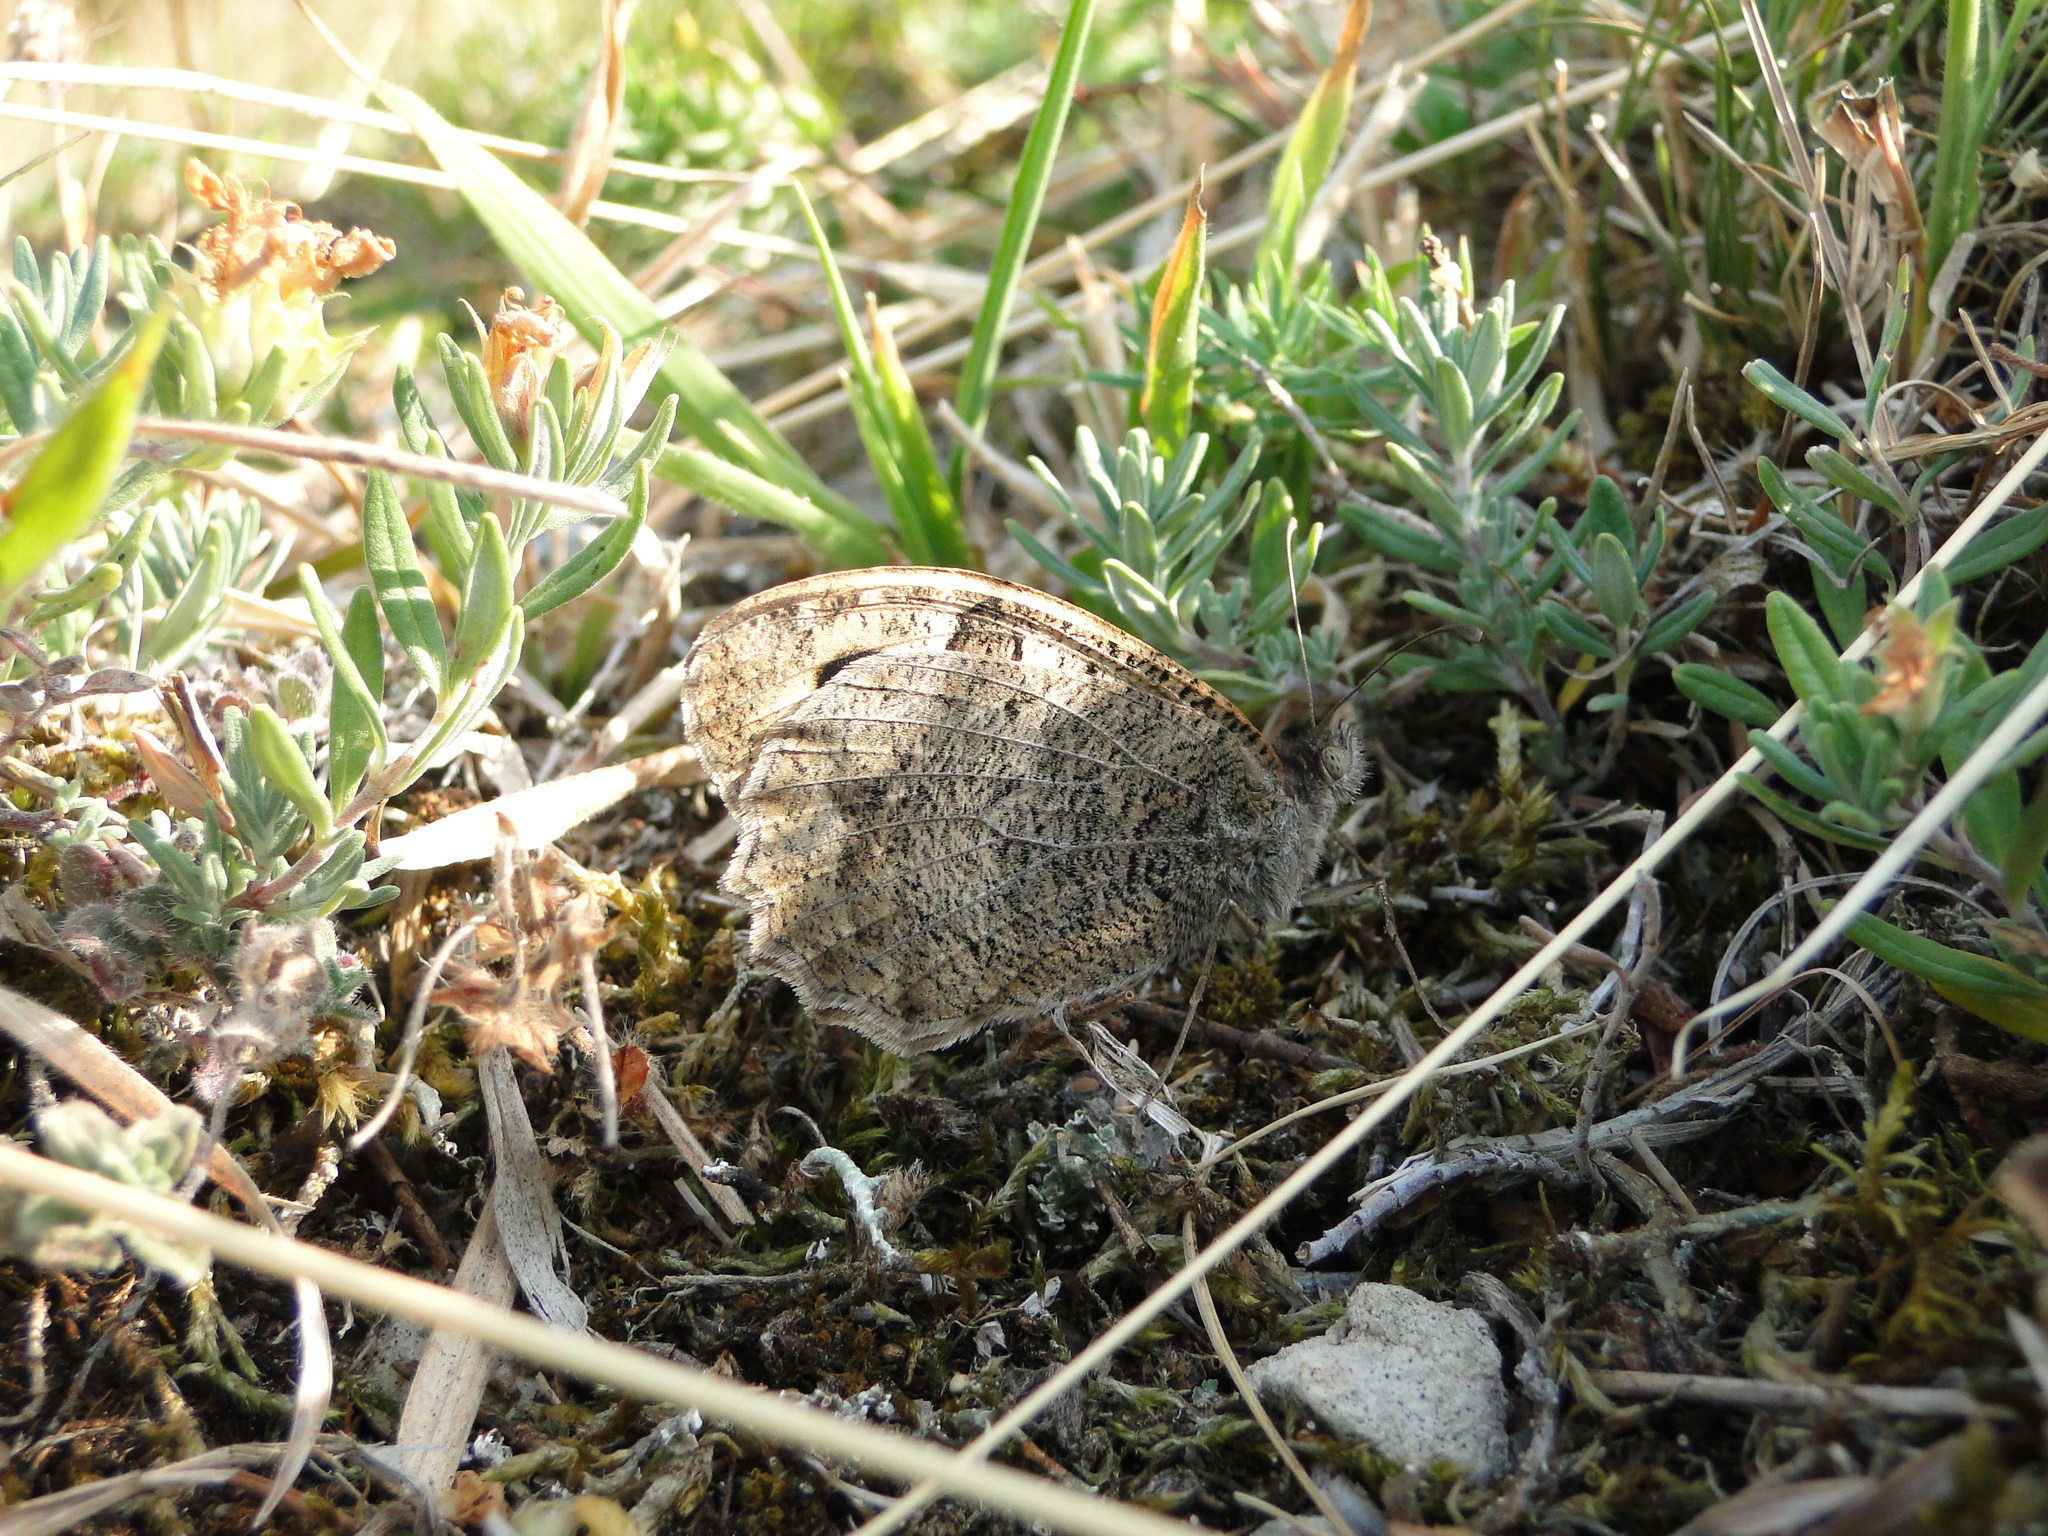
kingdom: Animalia
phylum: Arthropoda
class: Insecta
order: Lepidoptera
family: Nymphalidae
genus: Satyrus
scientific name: Satyrus briseis
